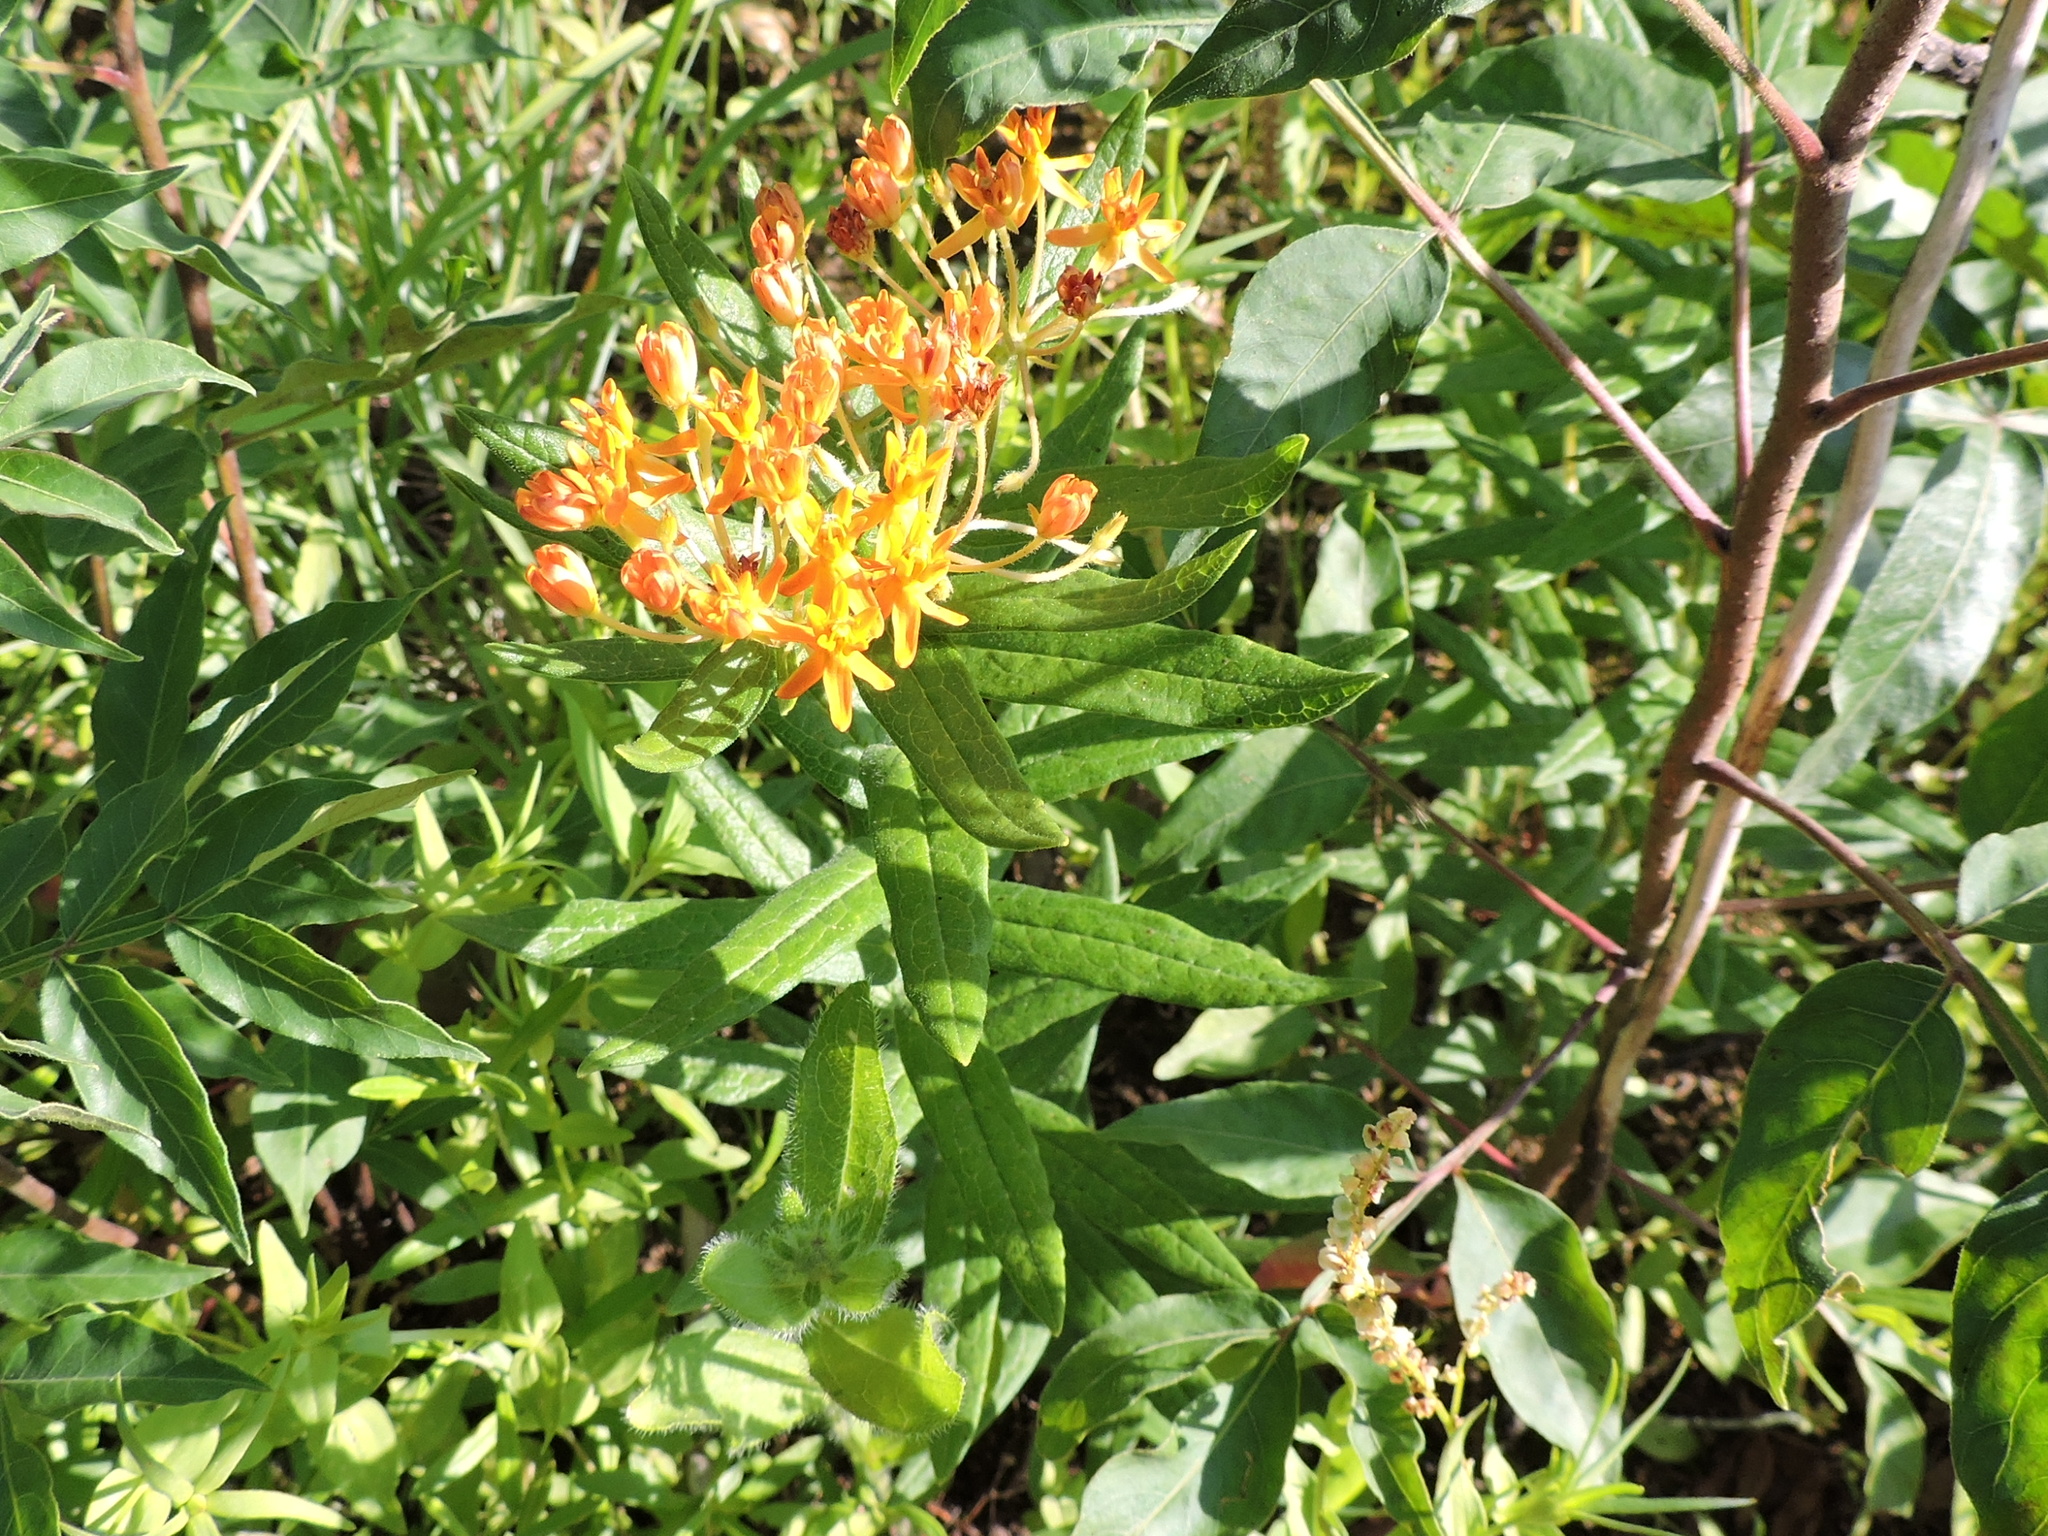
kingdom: Plantae
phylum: Tracheophyta
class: Magnoliopsida
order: Gentianales
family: Apocynaceae
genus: Asclepias
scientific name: Asclepias tuberosa
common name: Butterfly milkweed
